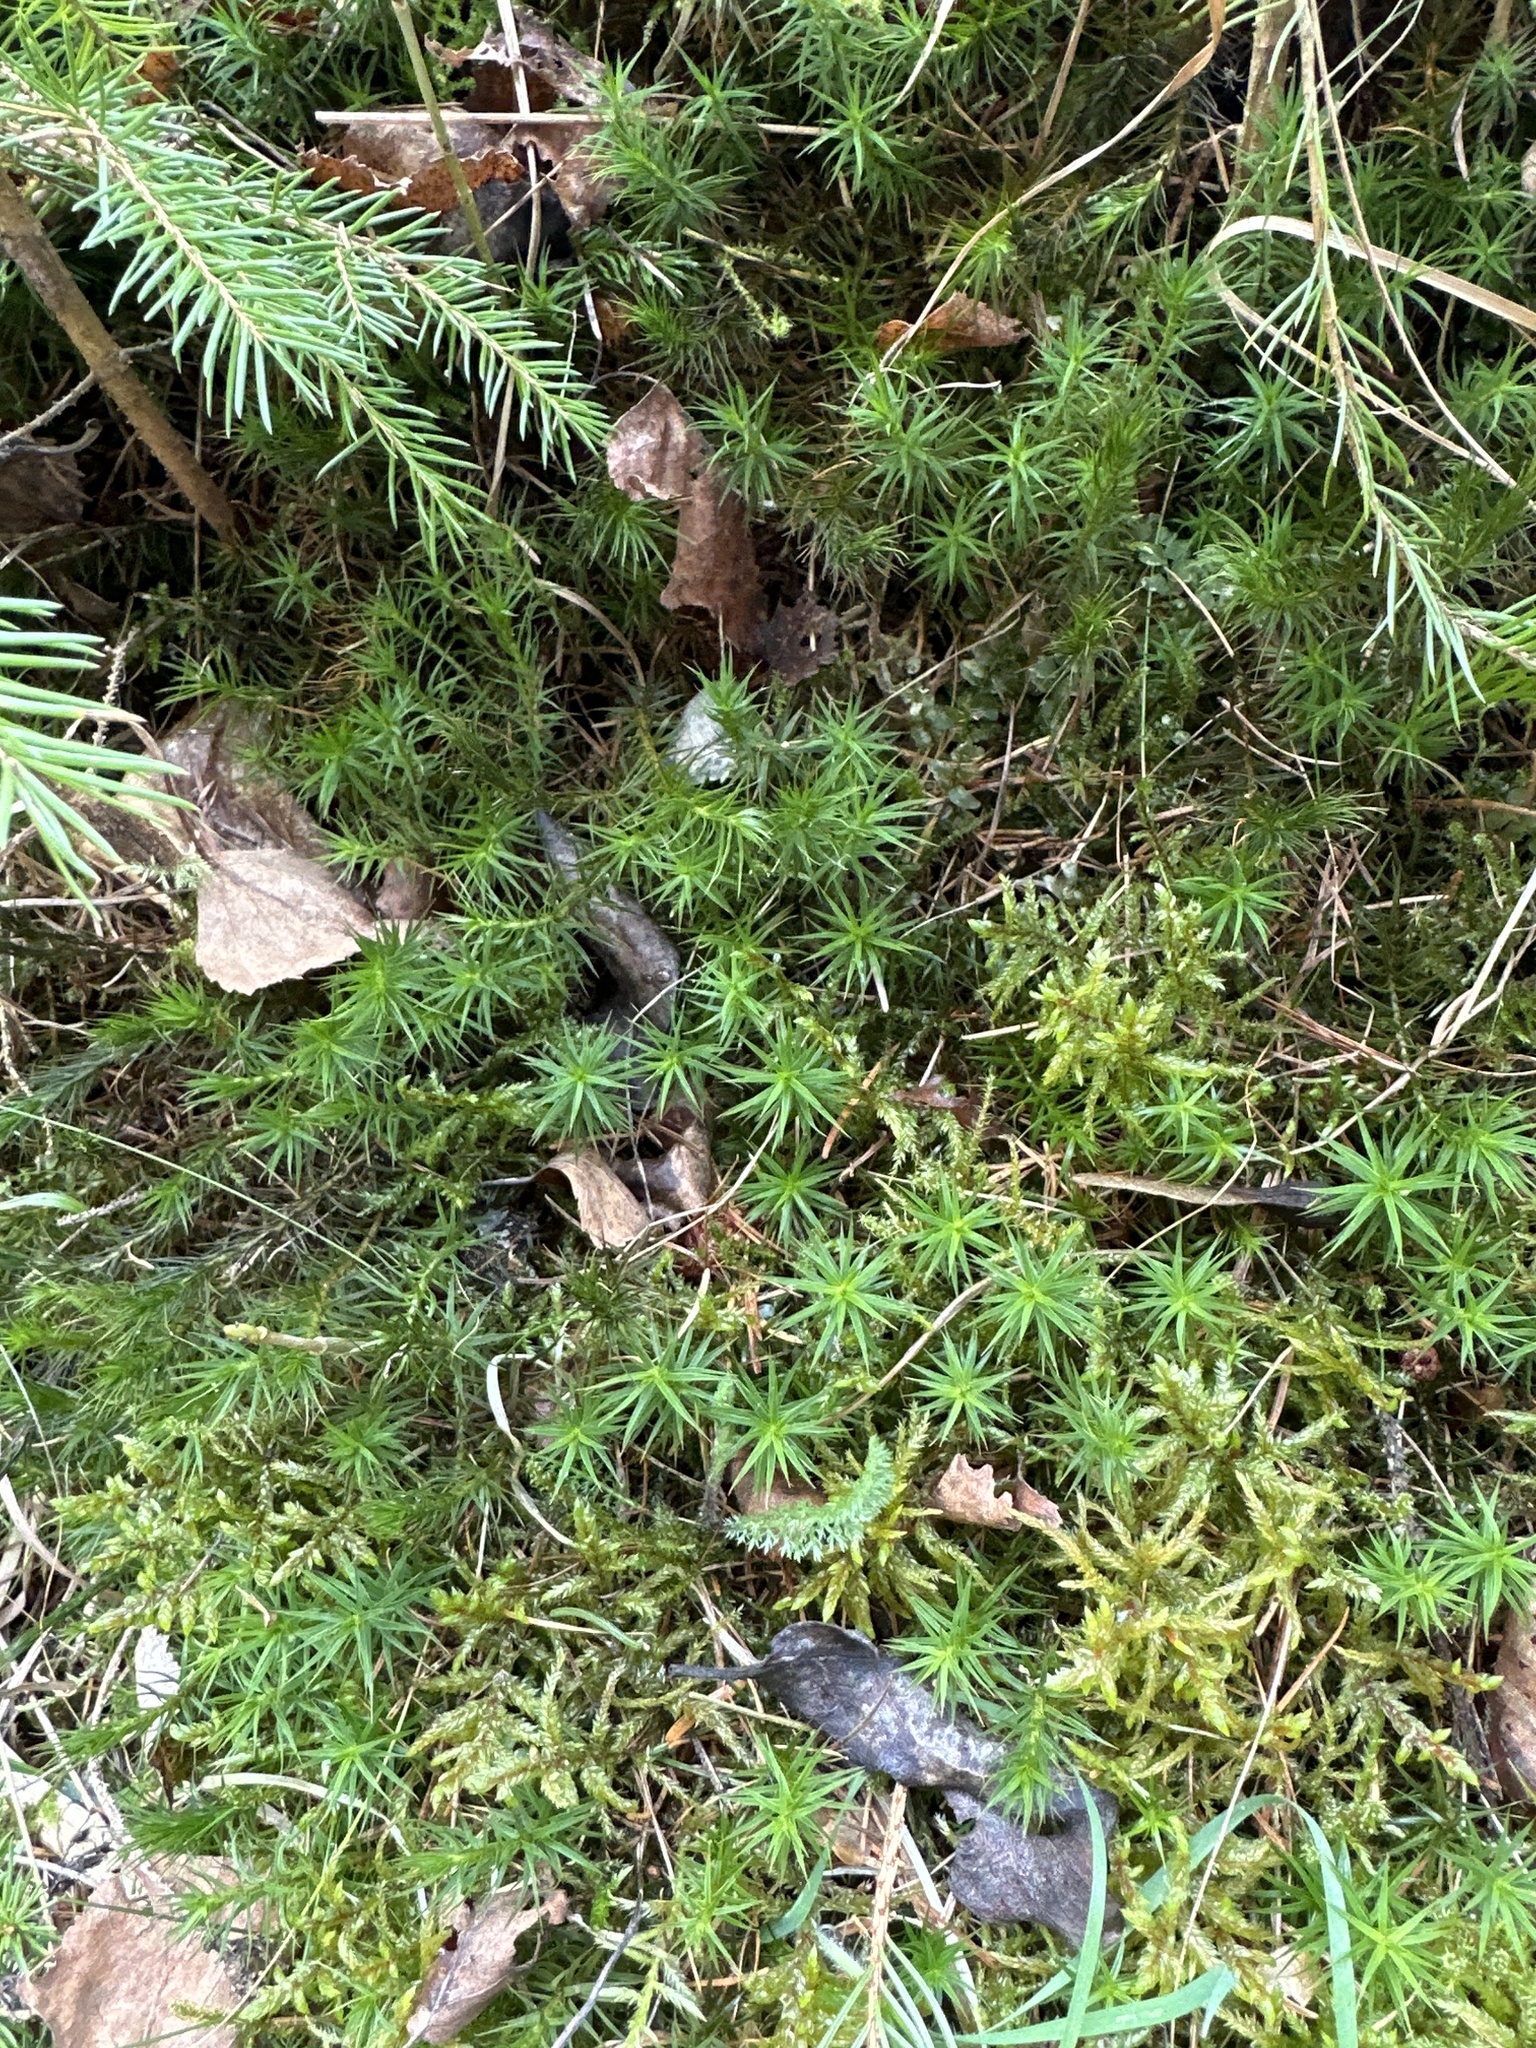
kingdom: Plantae
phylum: Bryophyta
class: Polytrichopsida
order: Polytrichales
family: Polytrichaceae
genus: Polytrichum
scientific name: Polytrichum formosum
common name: Bank haircap moss
